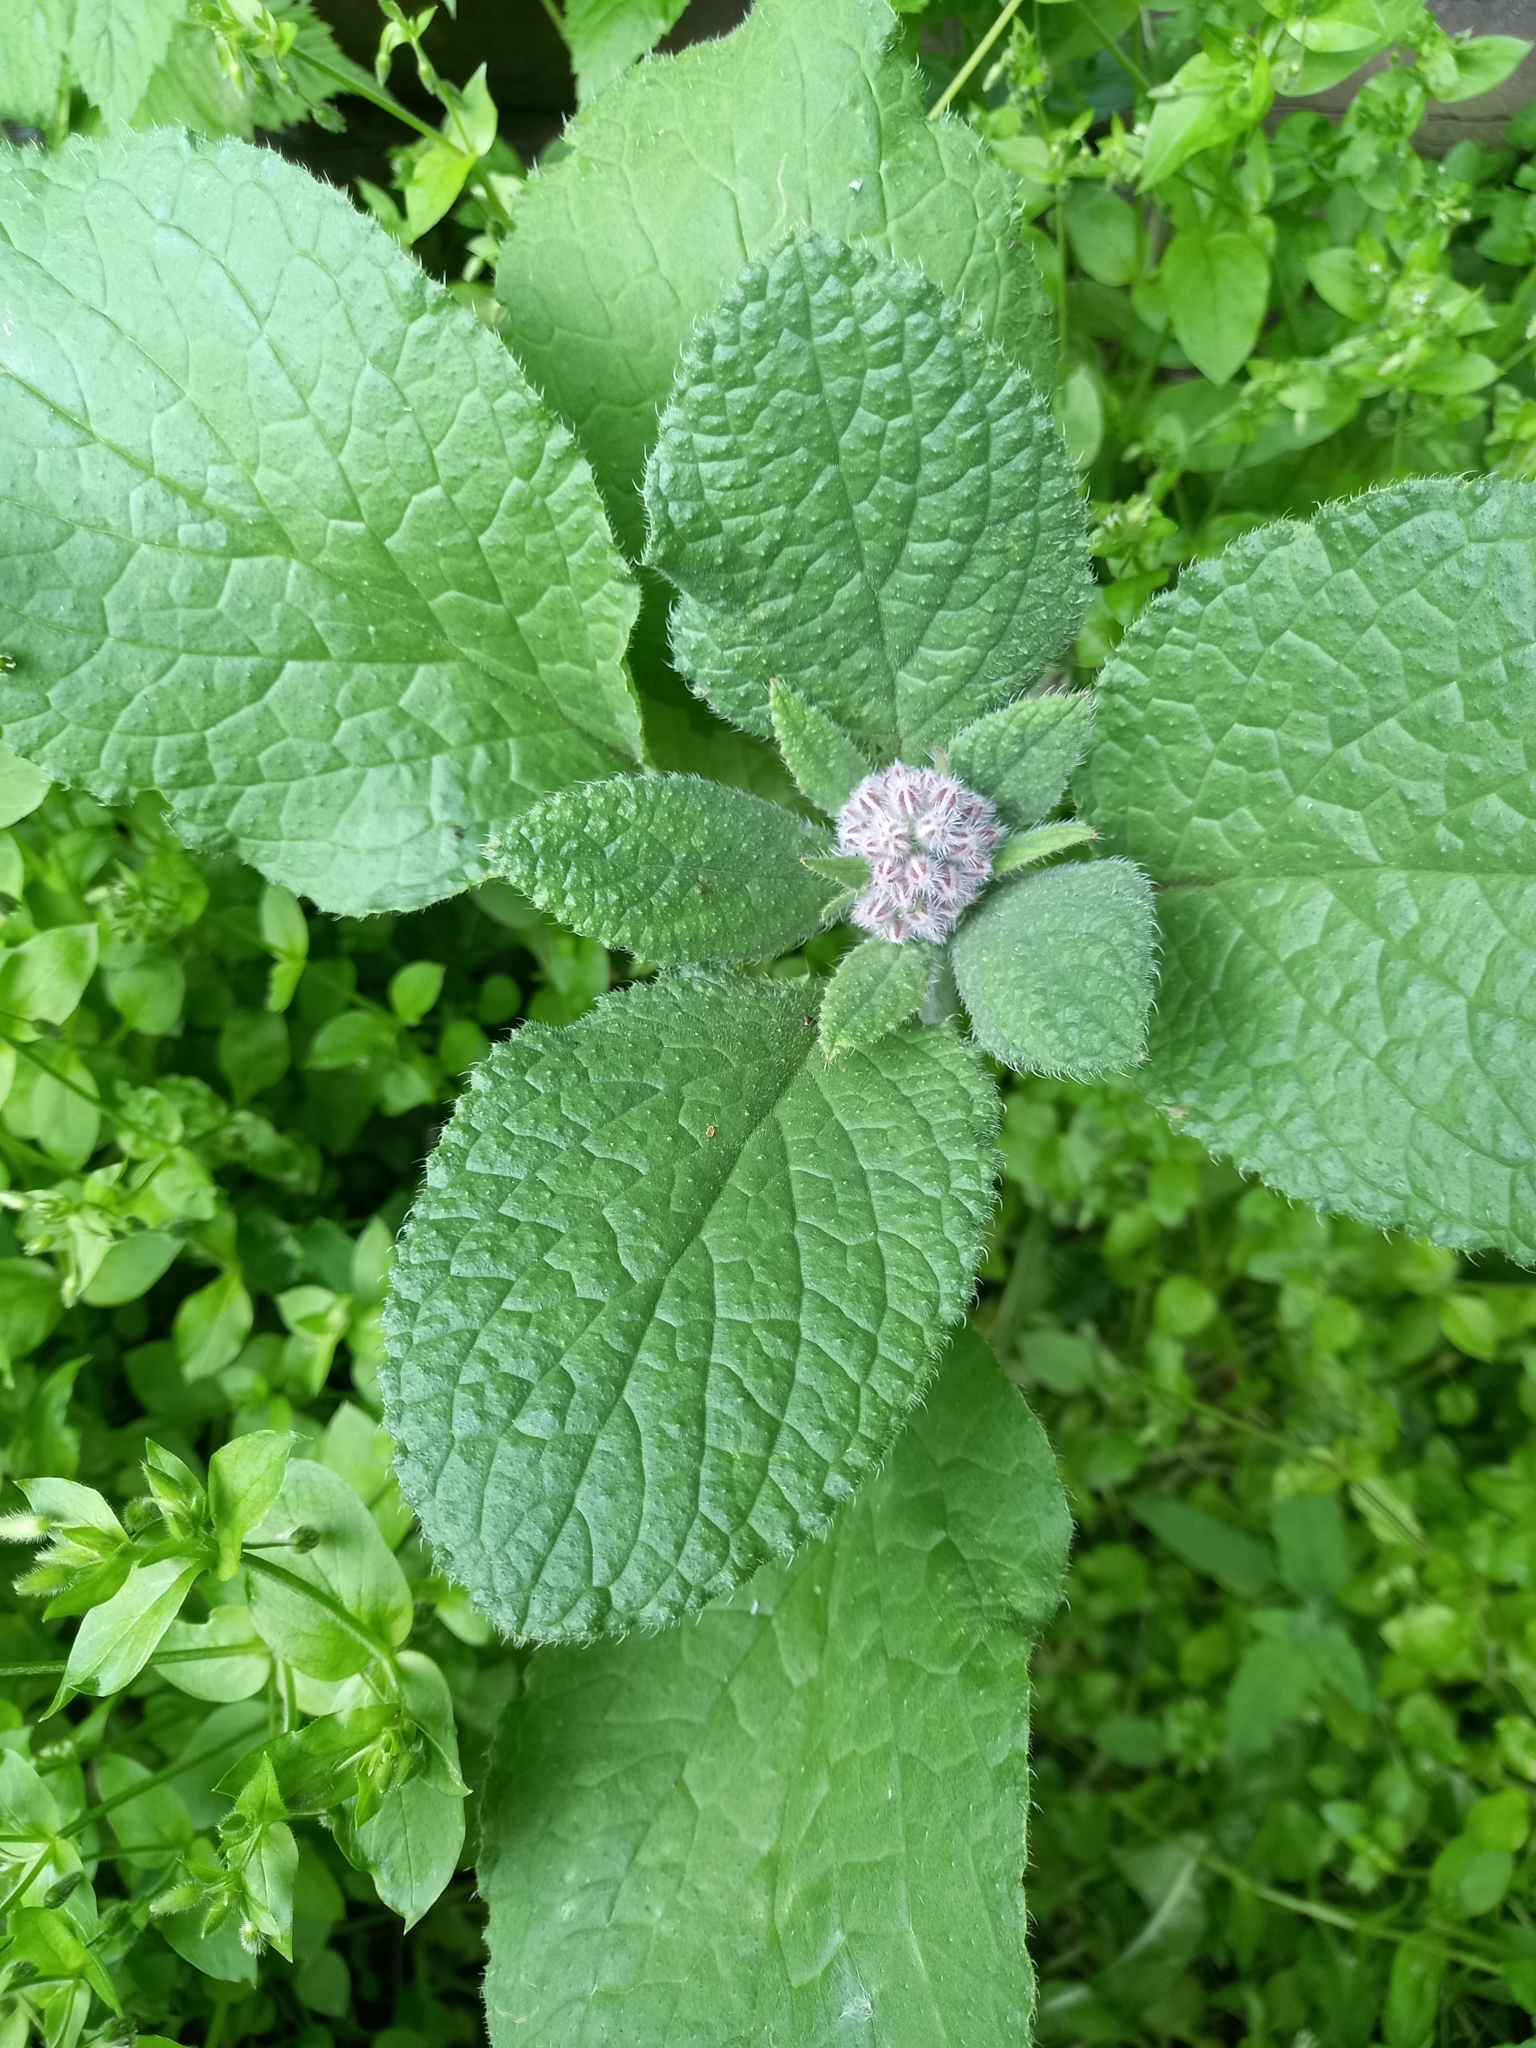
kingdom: Plantae
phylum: Tracheophyta
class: Magnoliopsida
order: Boraginales
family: Boraginaceae
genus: Borago
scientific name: Borago officinalis
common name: Borage
